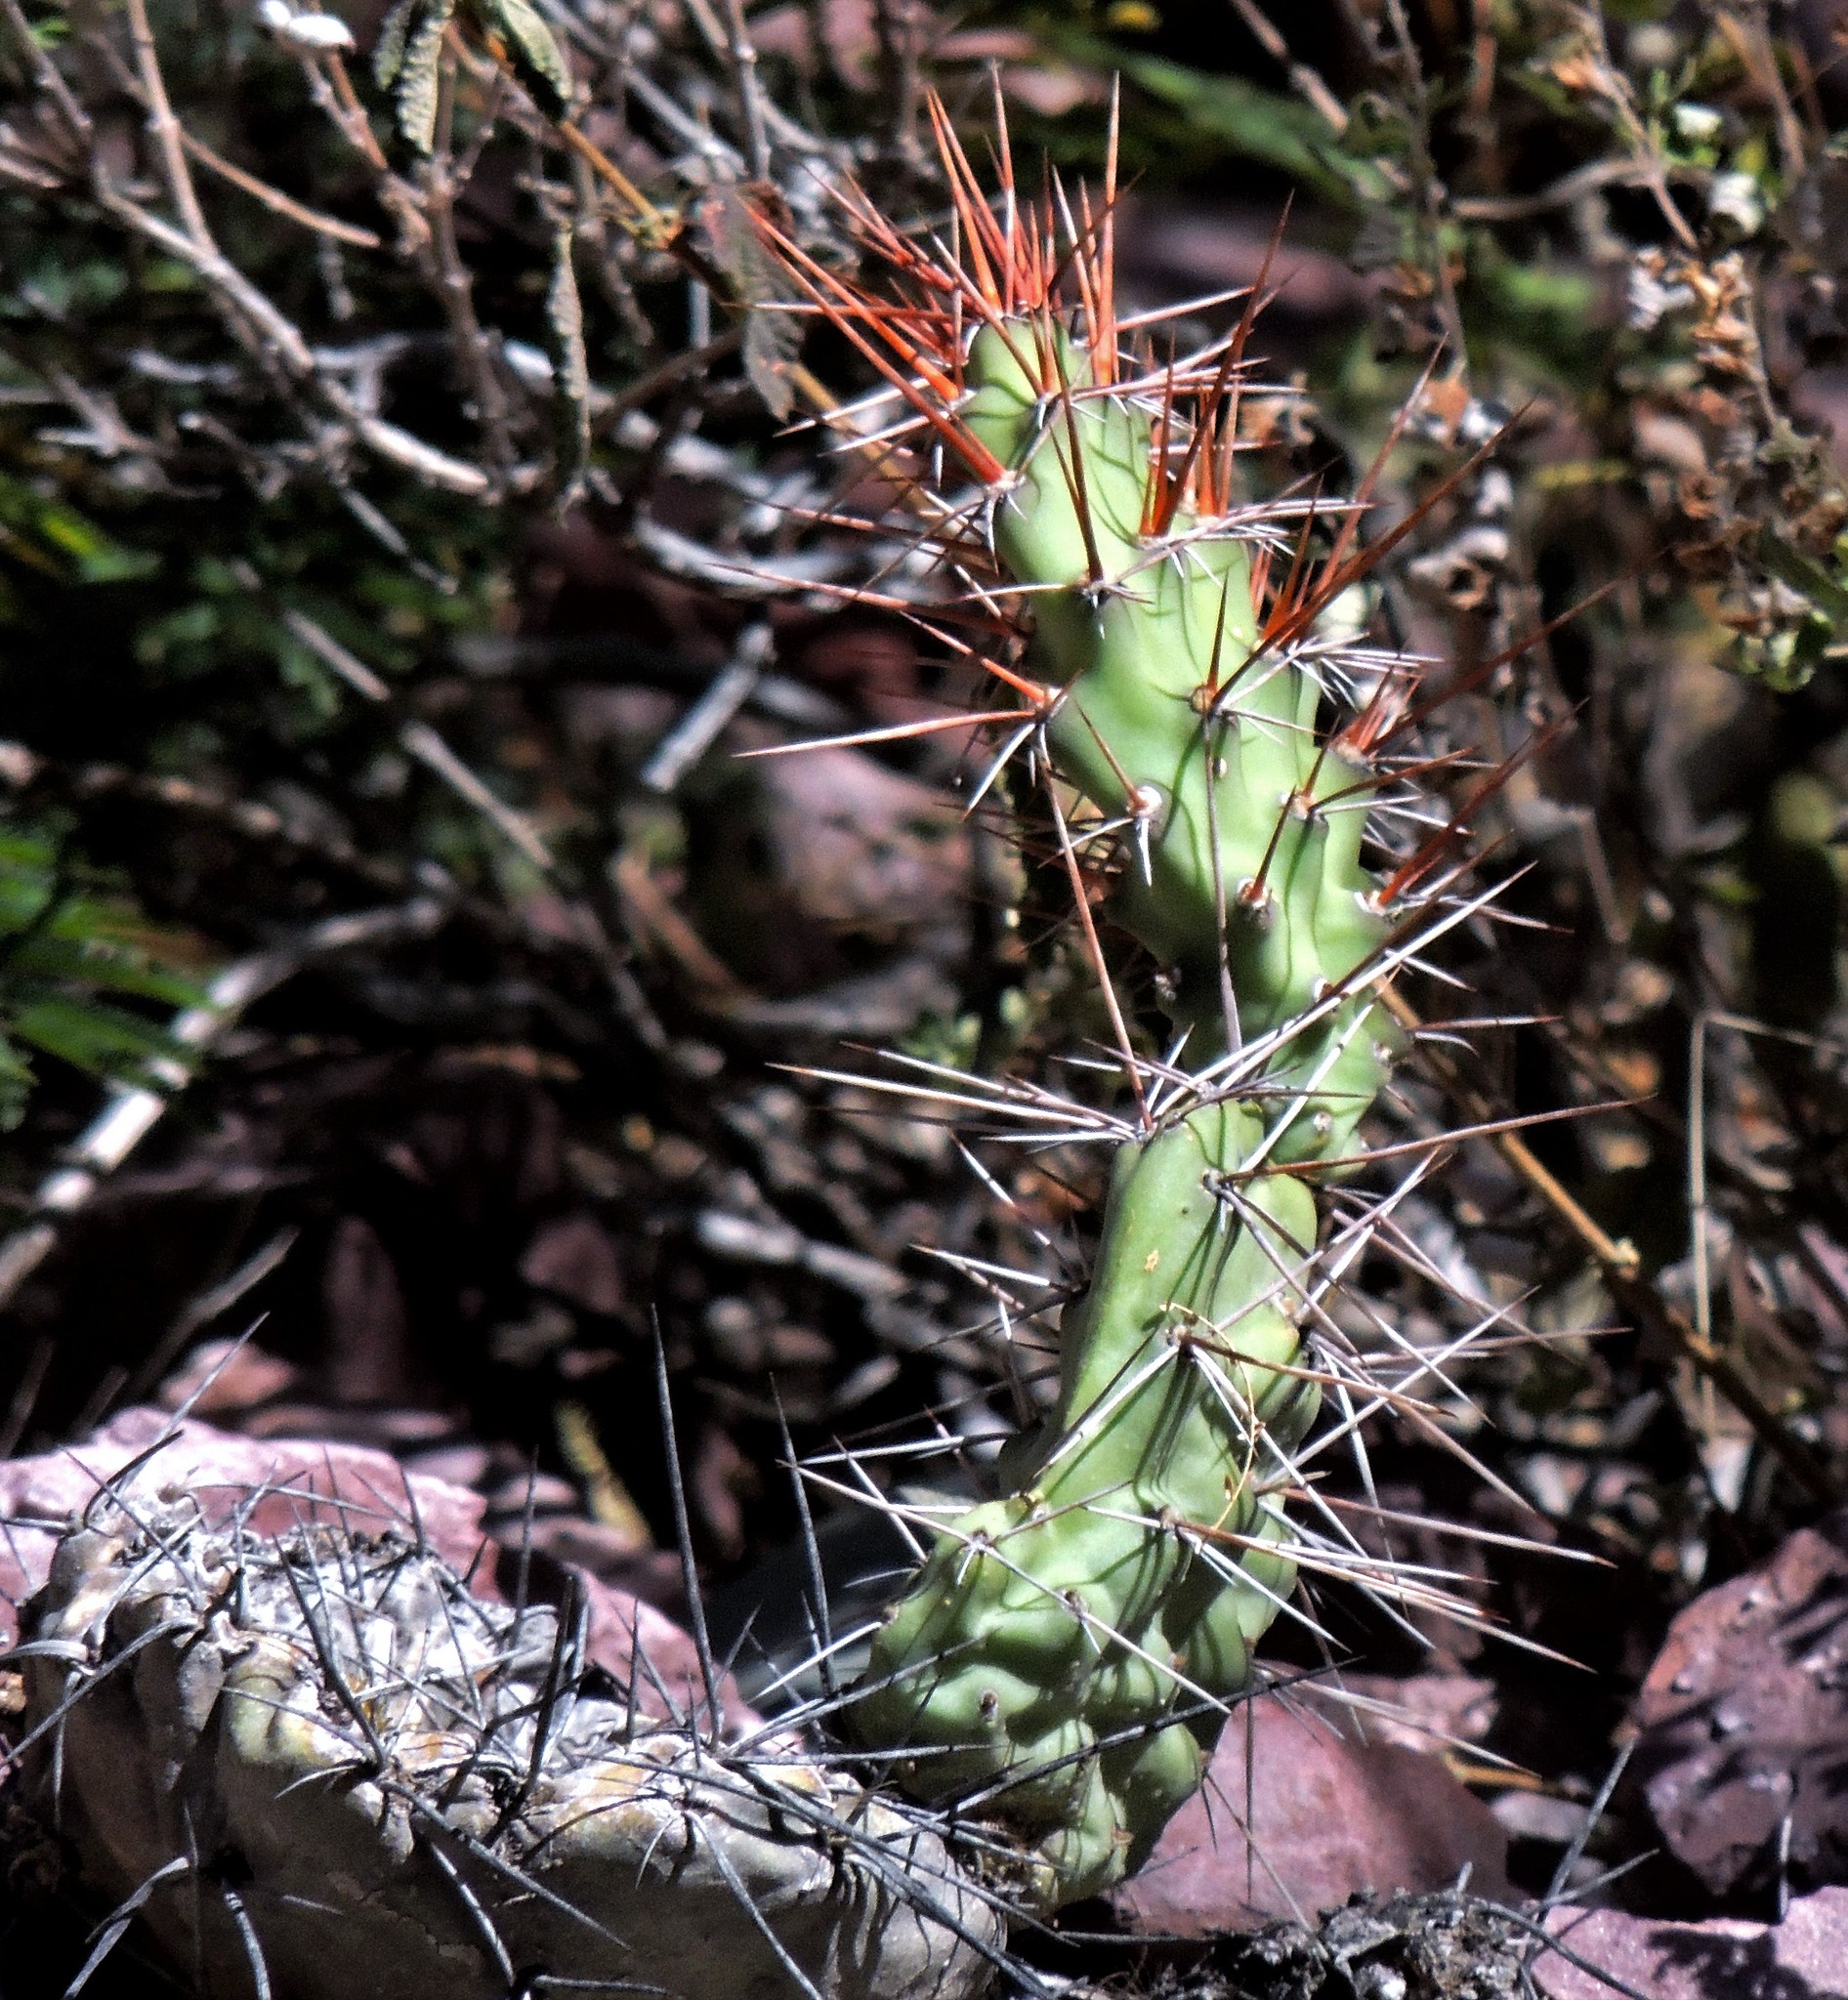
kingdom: Plantae
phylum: Tracheophyta
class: Magnoliopsida
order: Caryophyllales
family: Cactaceae
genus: Opuntia
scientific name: Opuntia sulphurea
